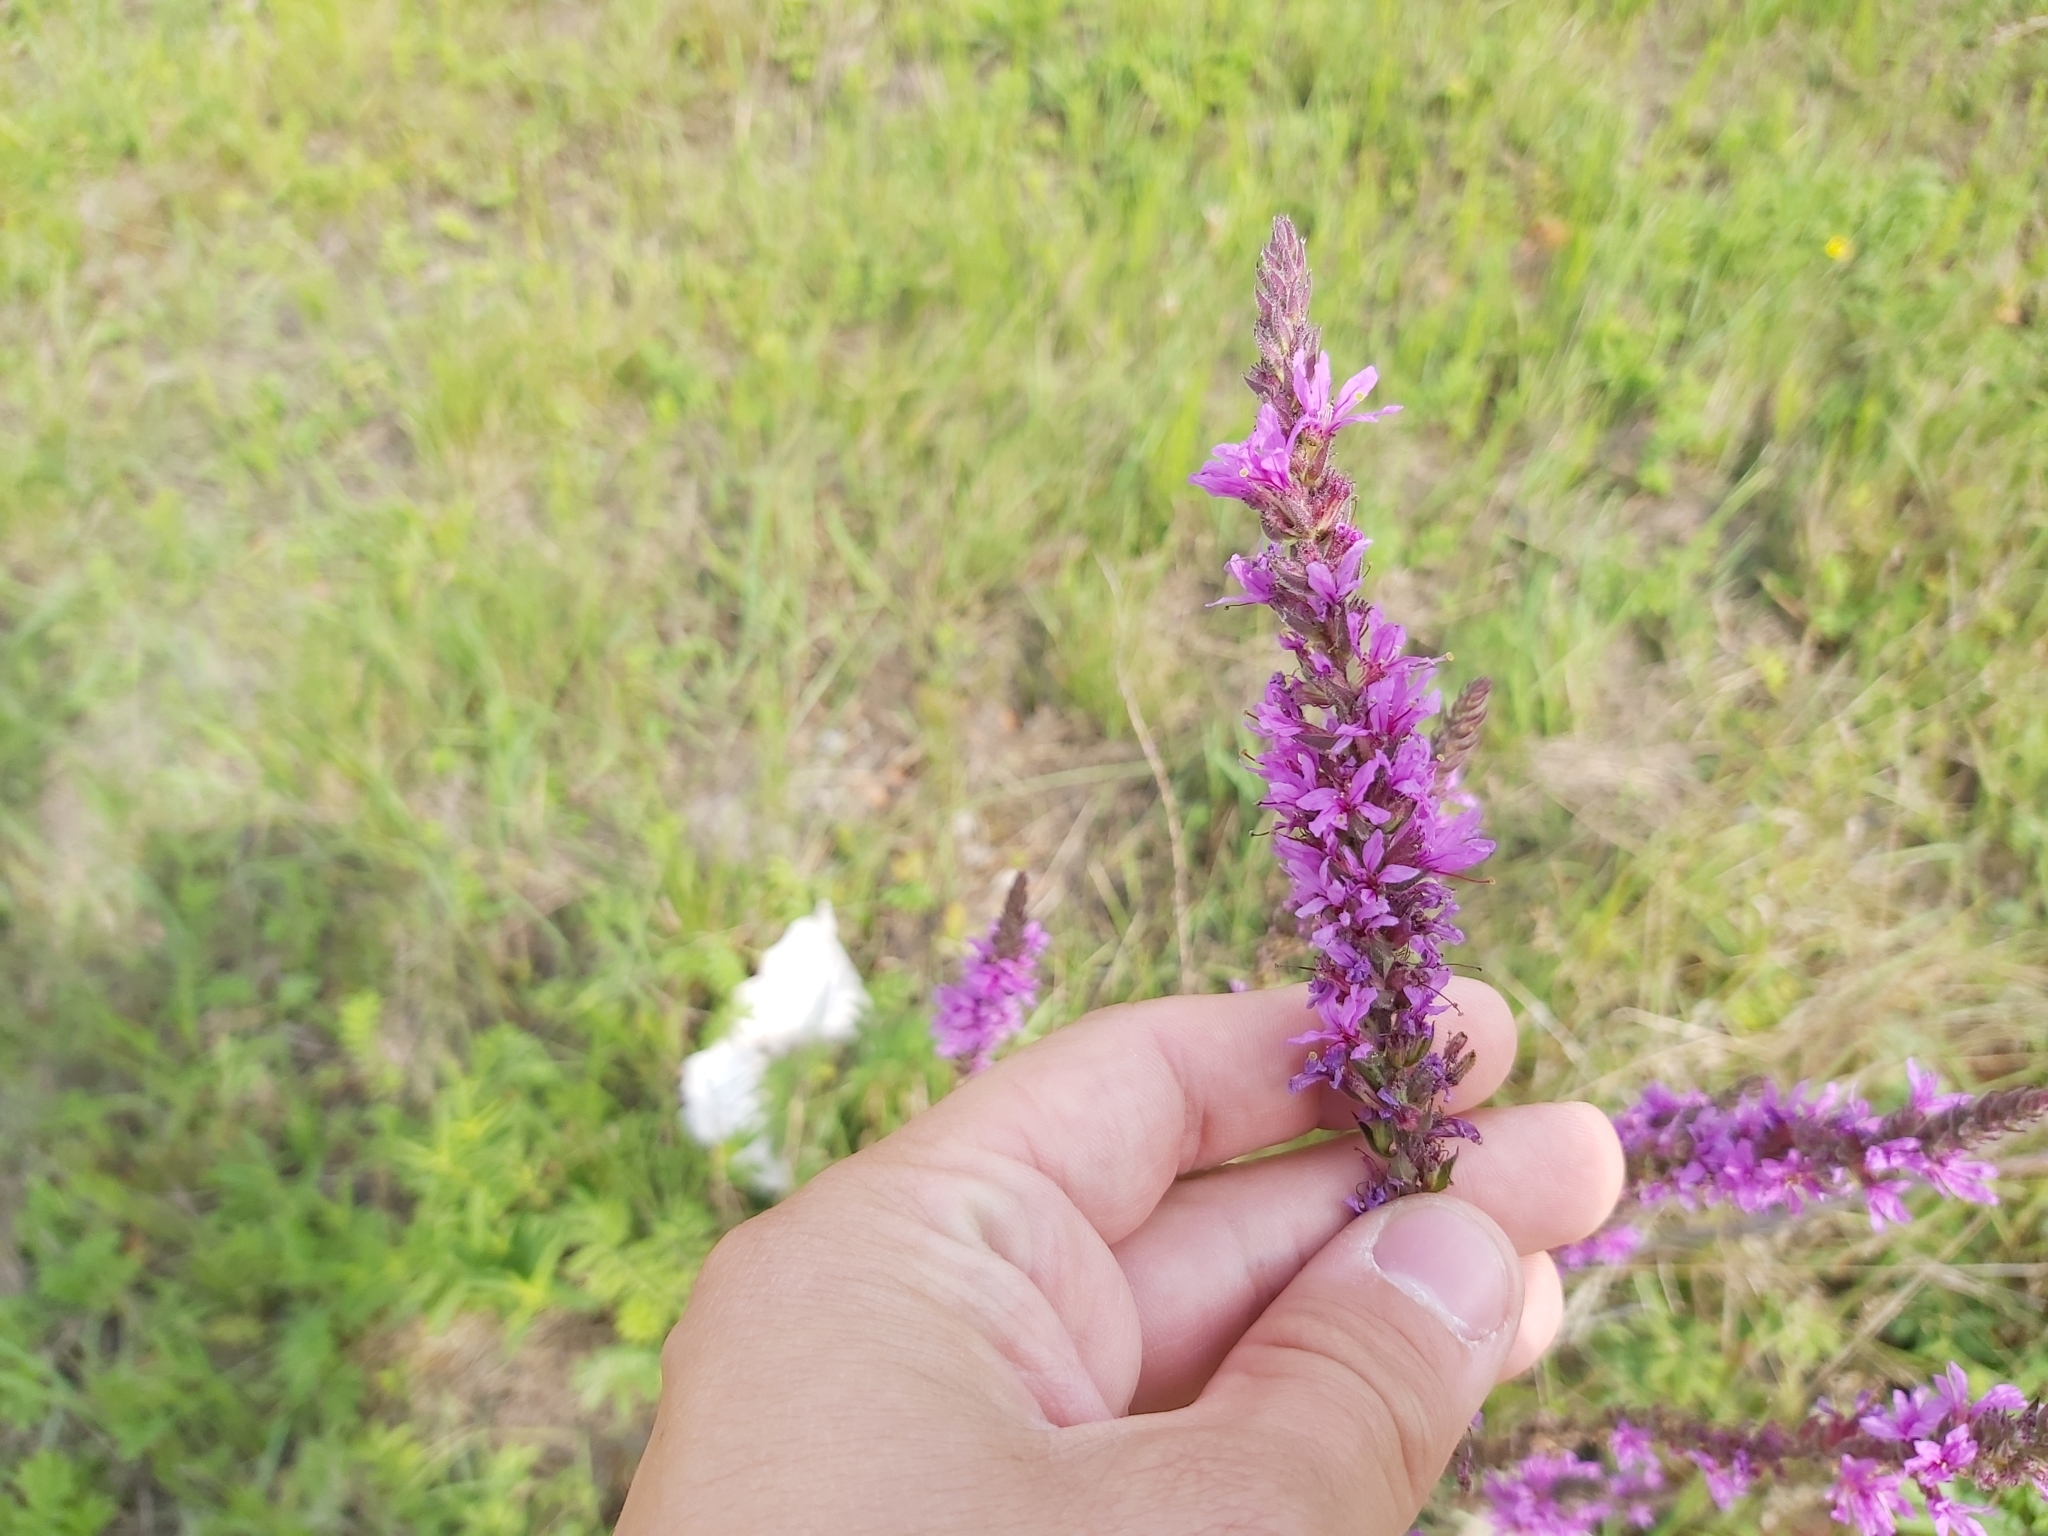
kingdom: Plantae
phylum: Tracheophyta
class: Magnoliopsida
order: Myrtales
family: Lythraceae
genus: Lythrum
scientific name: Lythrum salicaria
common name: Purple loosestrife
